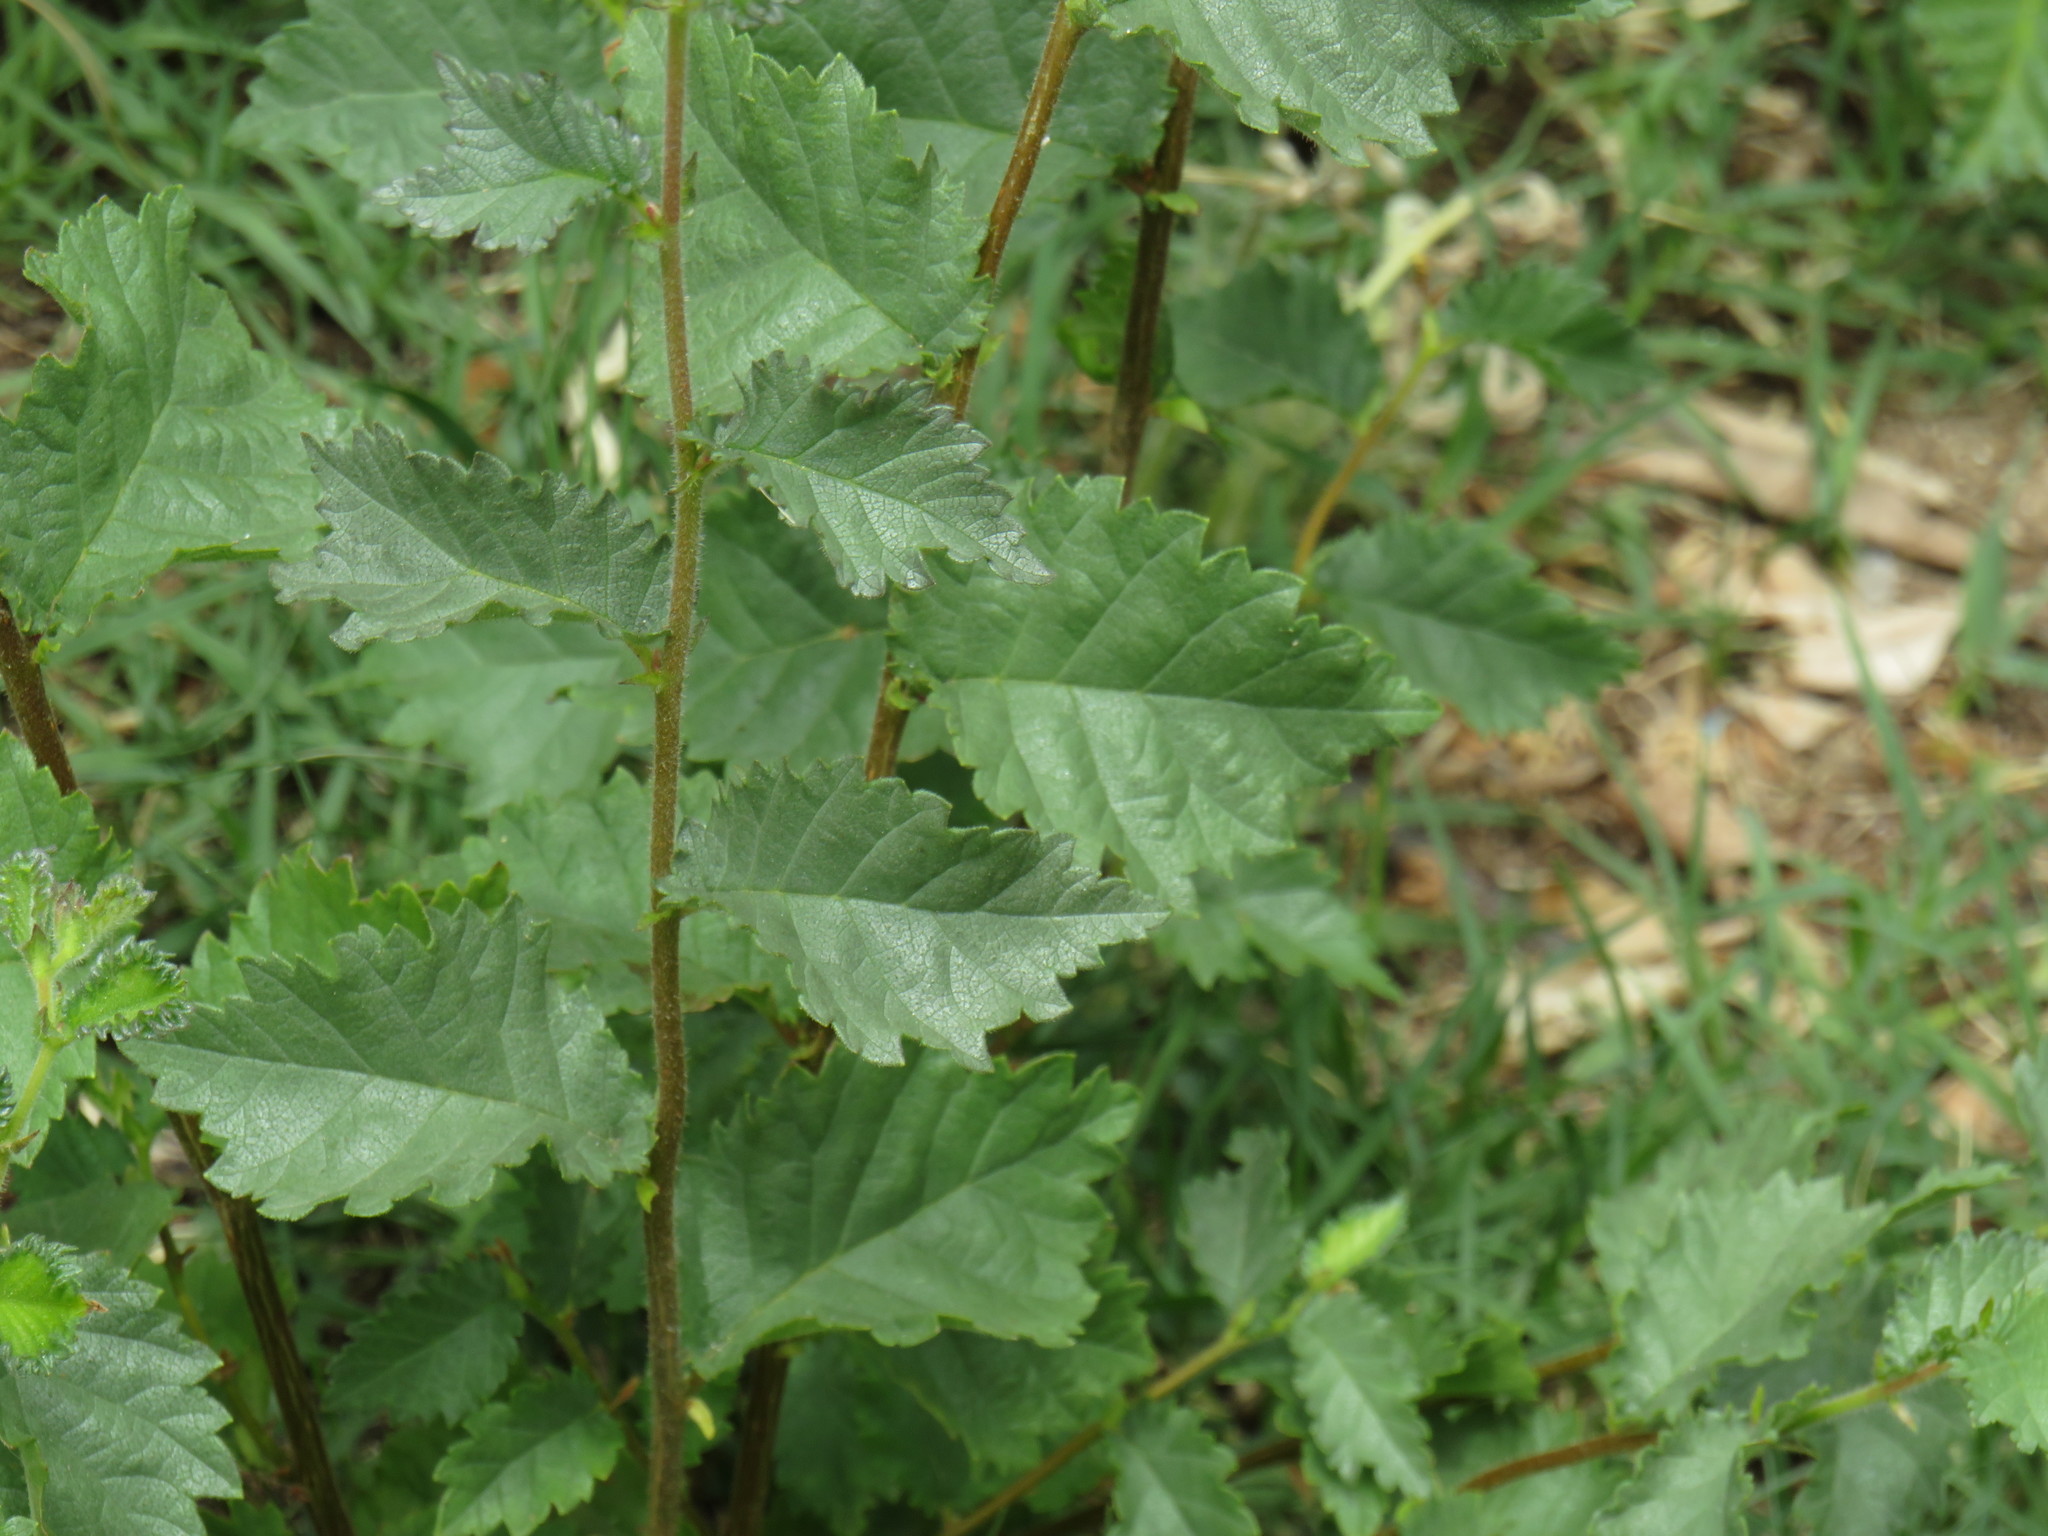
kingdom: Plantae
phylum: Tracheophyta
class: Magnoliopsida
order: Rosales
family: Ulmaceae
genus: Ulmus
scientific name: Ulmus minor
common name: Small-leaved elm
